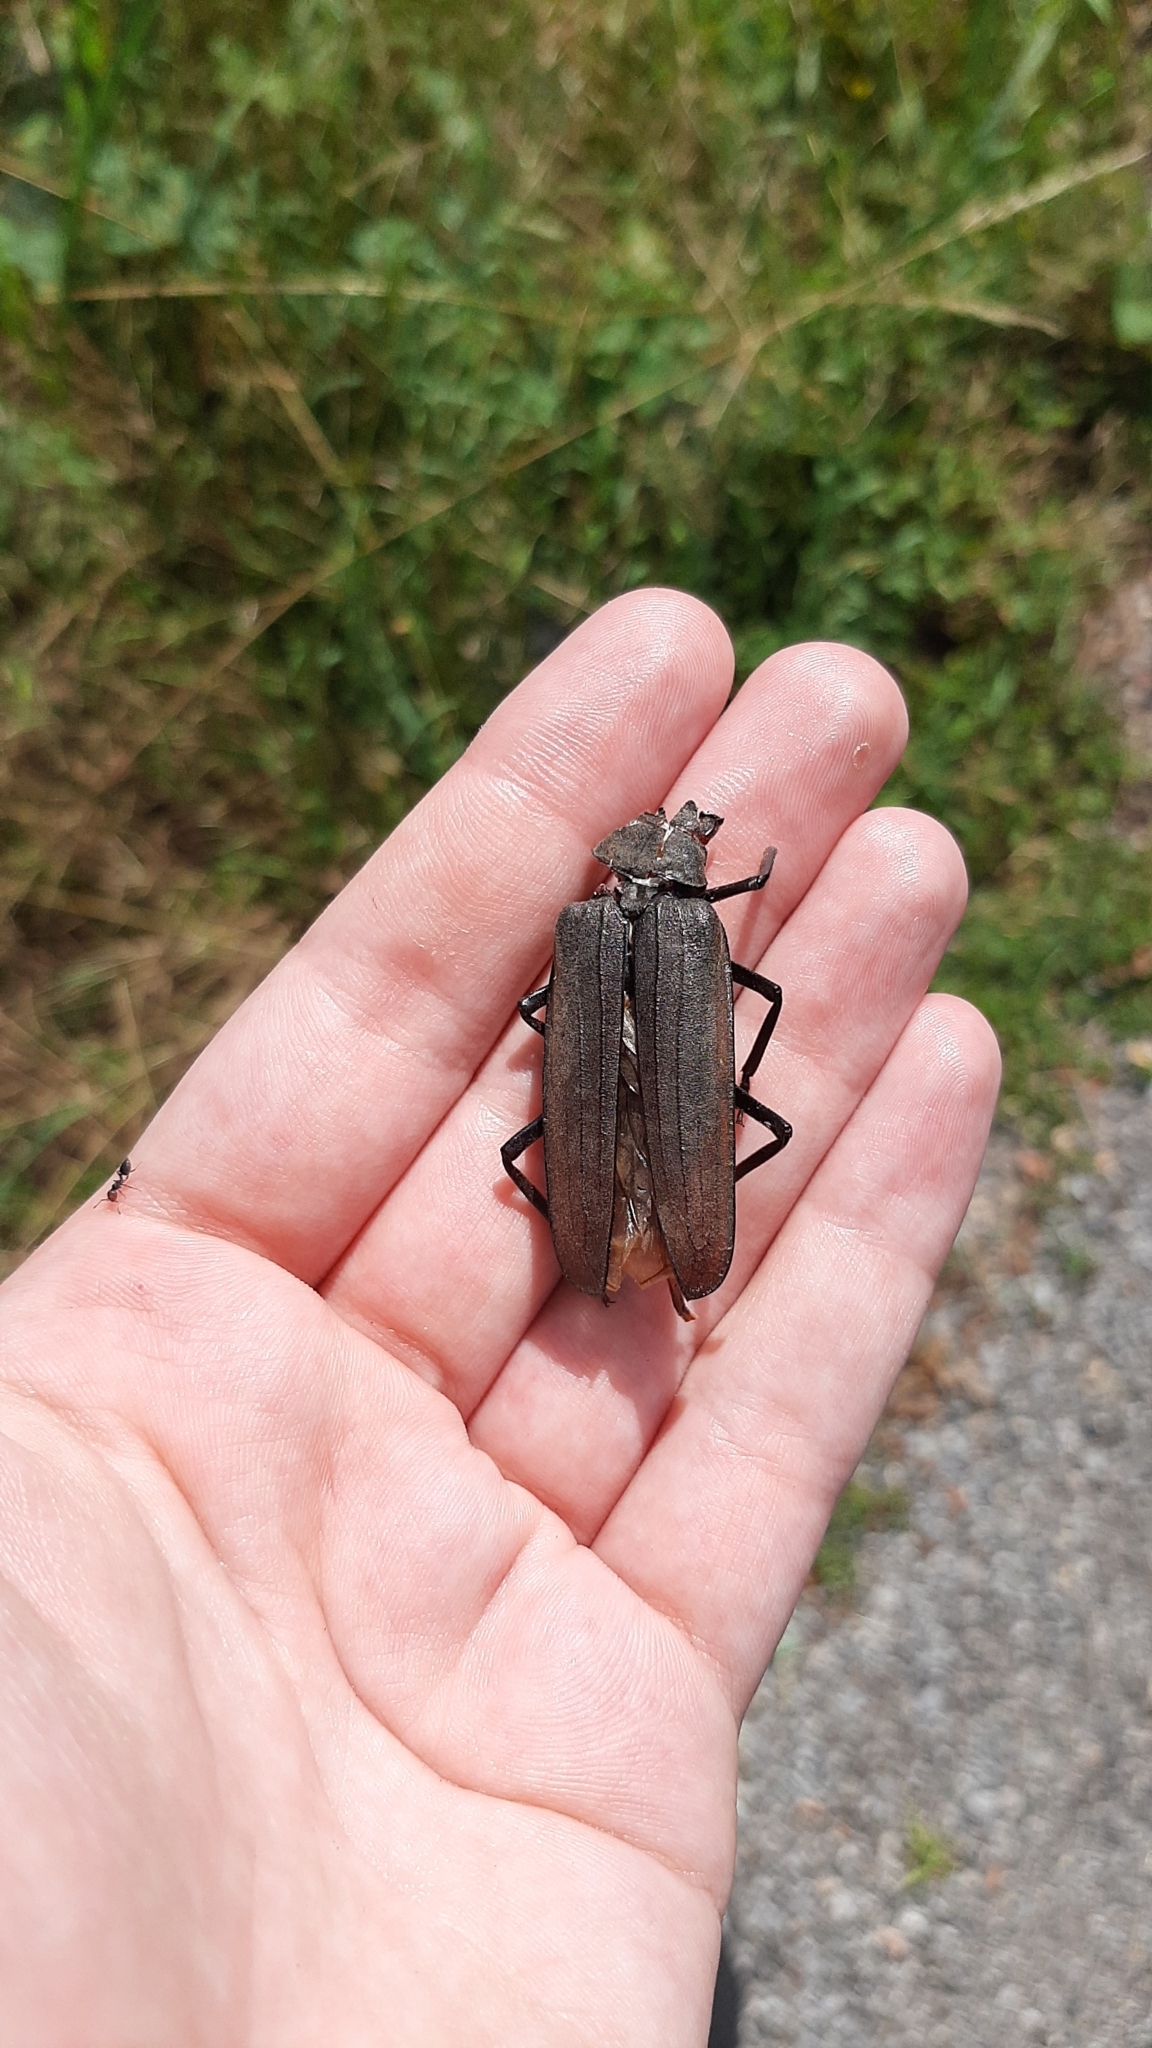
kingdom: Animalia
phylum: Arthropoda
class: Insecta
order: Coleoptera
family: Cerambycidae
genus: Aegosoma
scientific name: Aegosoma scabricorne
